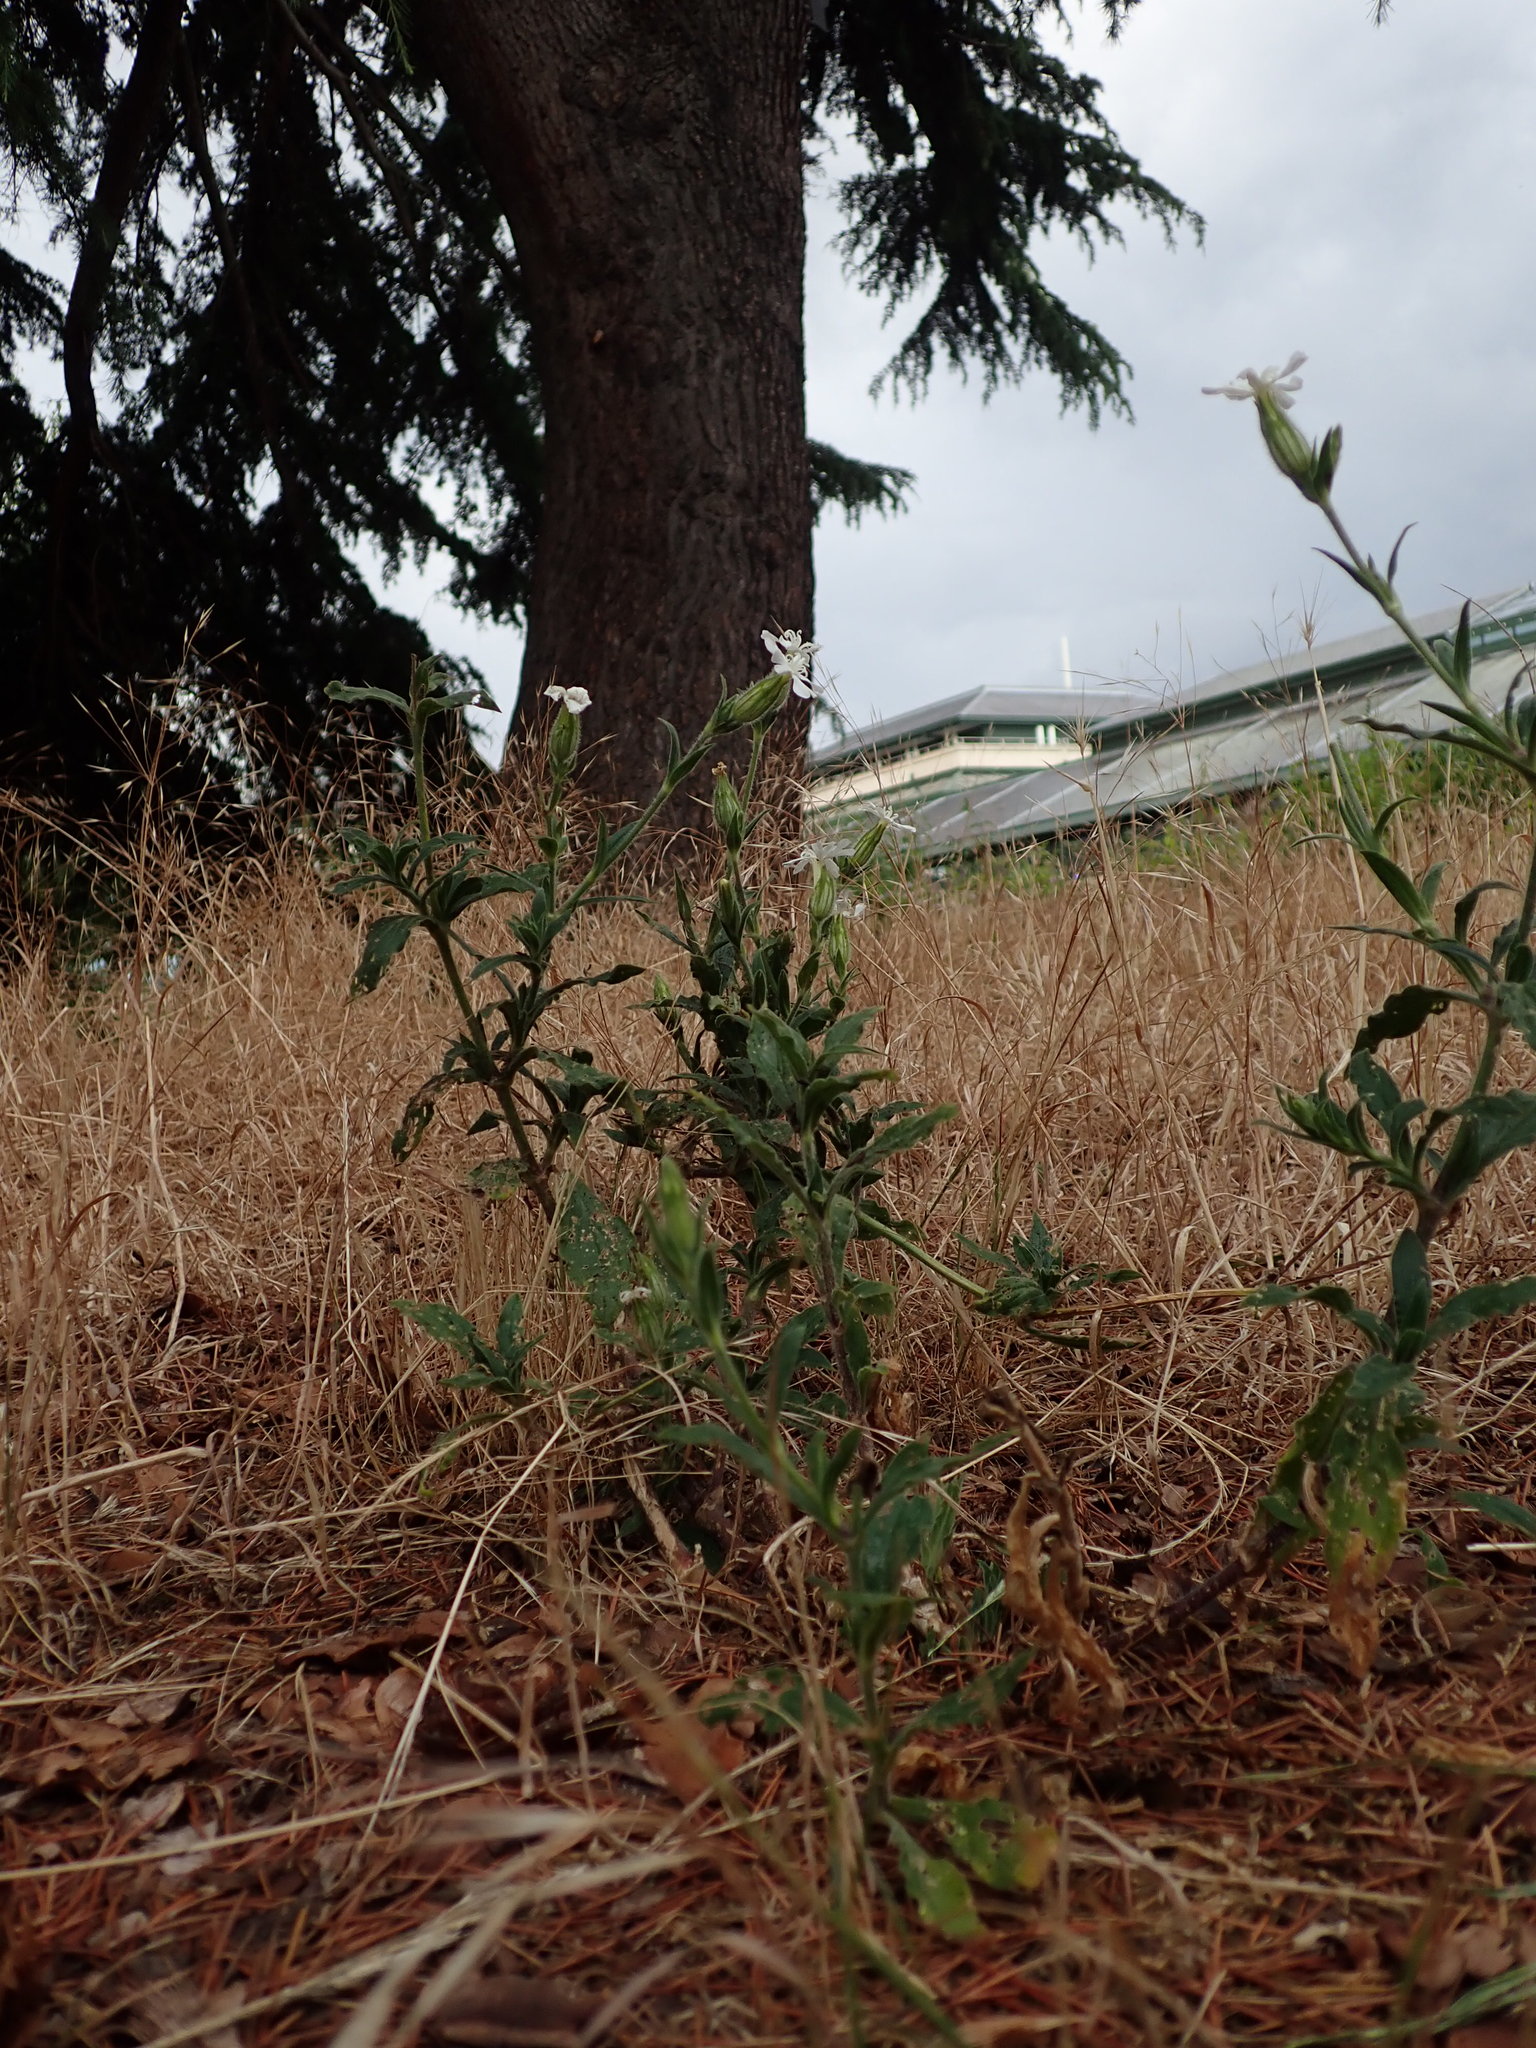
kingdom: Plantae
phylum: Tracheophyta
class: Magnoliopsida
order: Caryophyllales
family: Caryophyllaceae
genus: Silene
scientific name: Silene latifolia
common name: White campion
